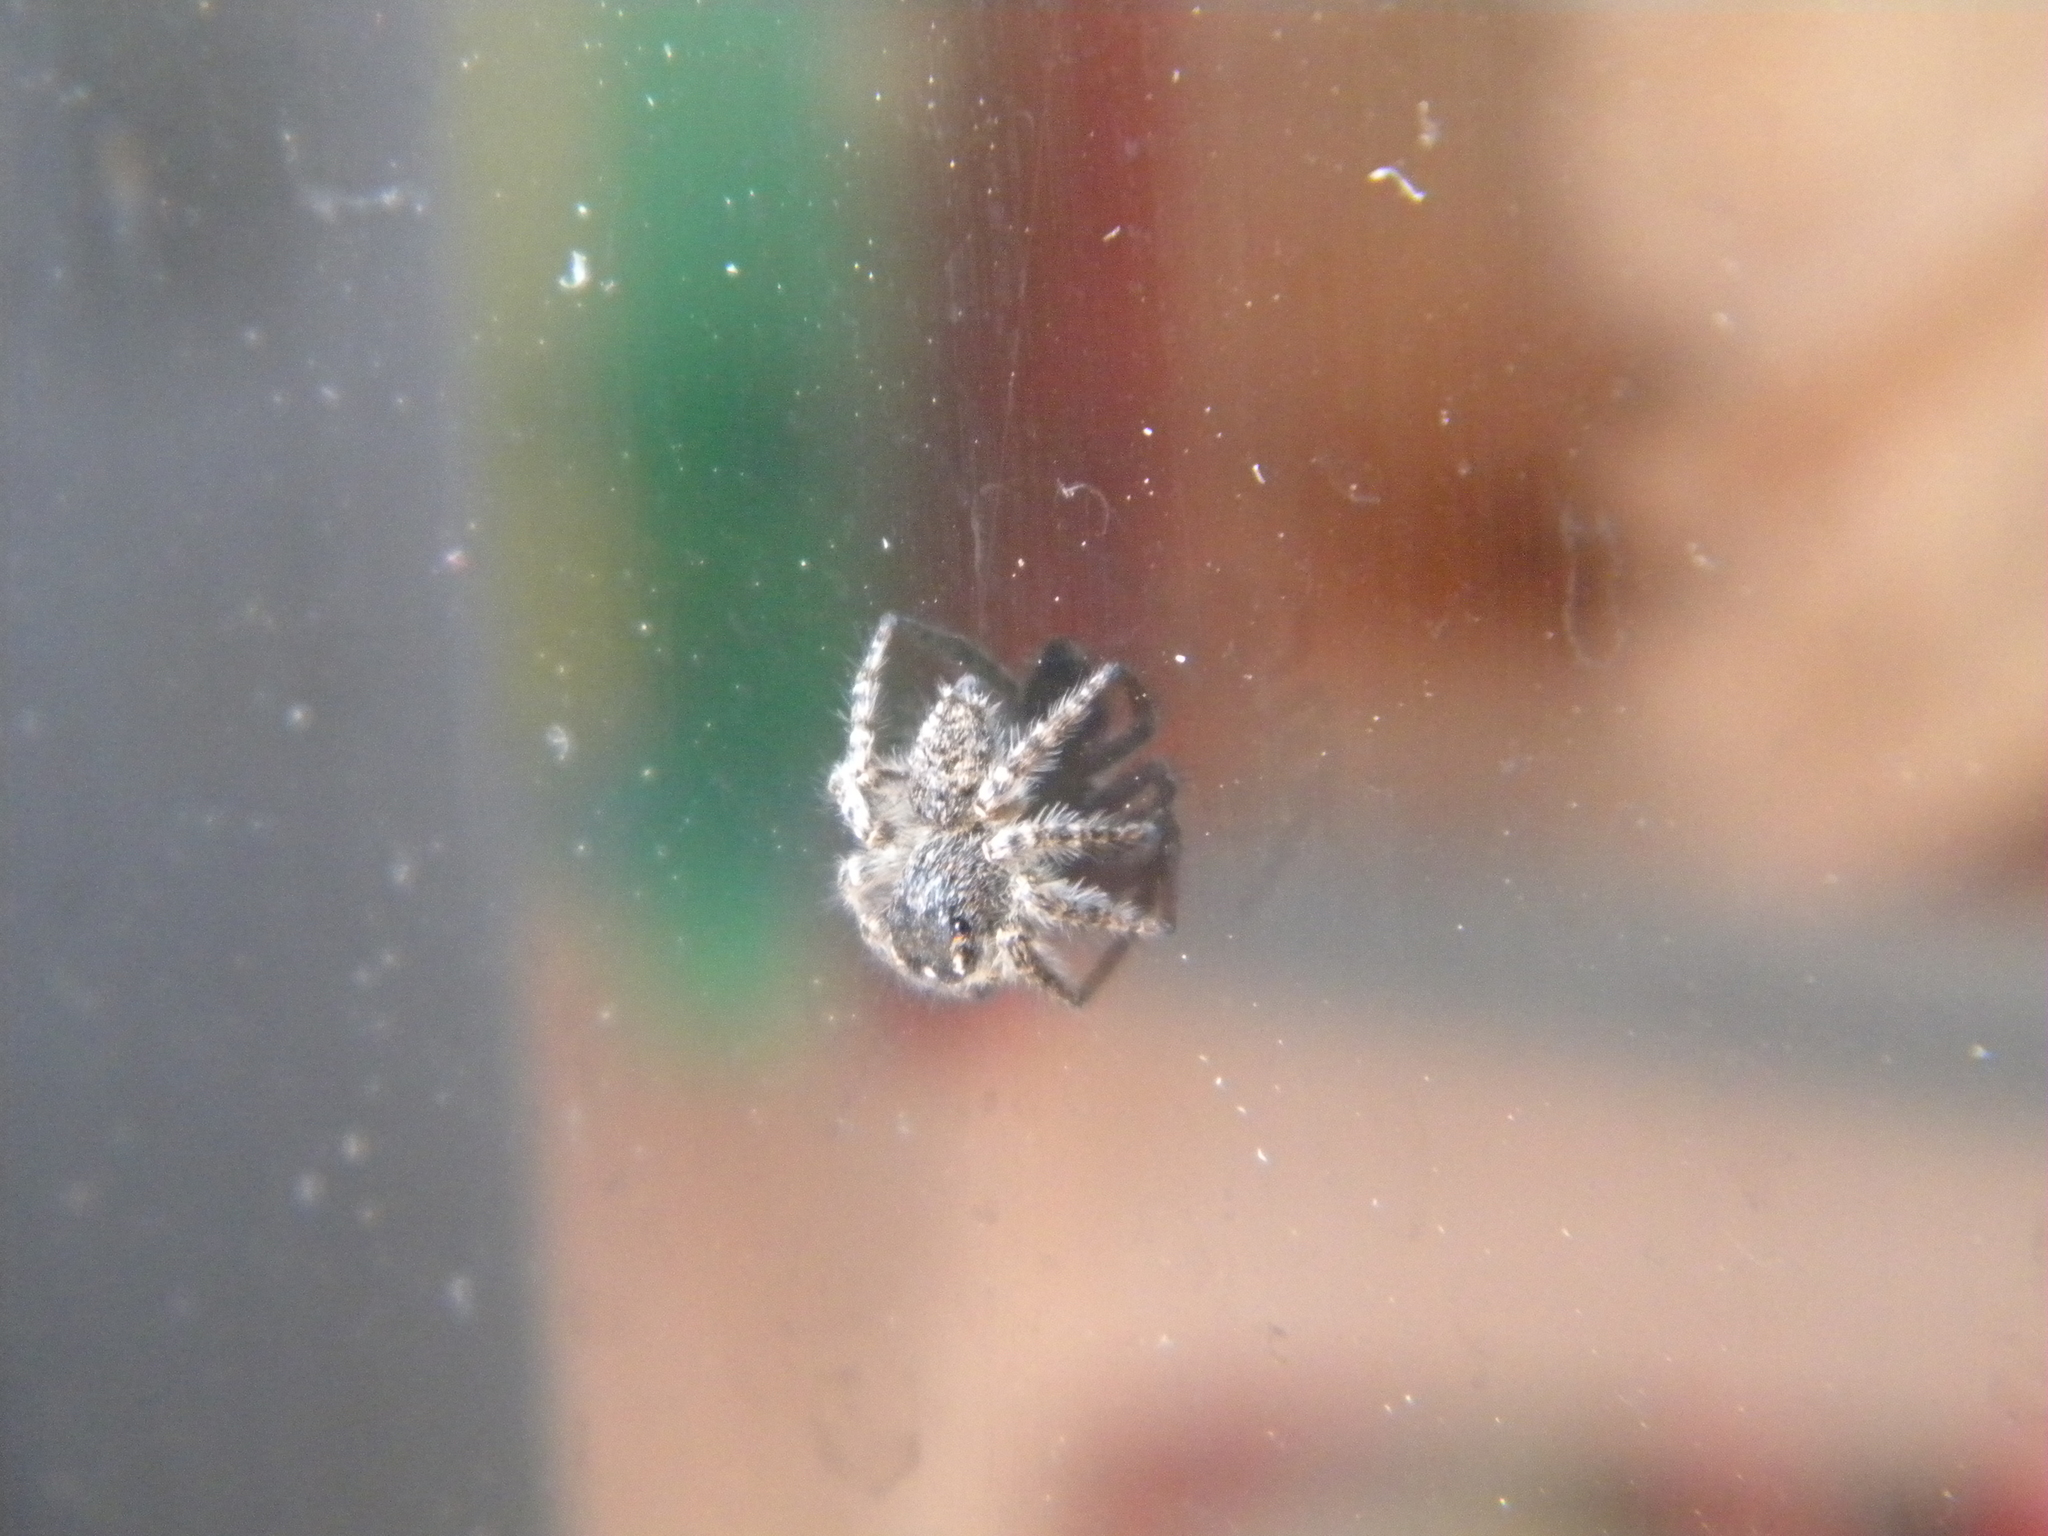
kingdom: Animalia
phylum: Arthropoda
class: Arachnida
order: Araneae
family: Salticidae
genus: Philaeus
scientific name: Philaeus chrysops
